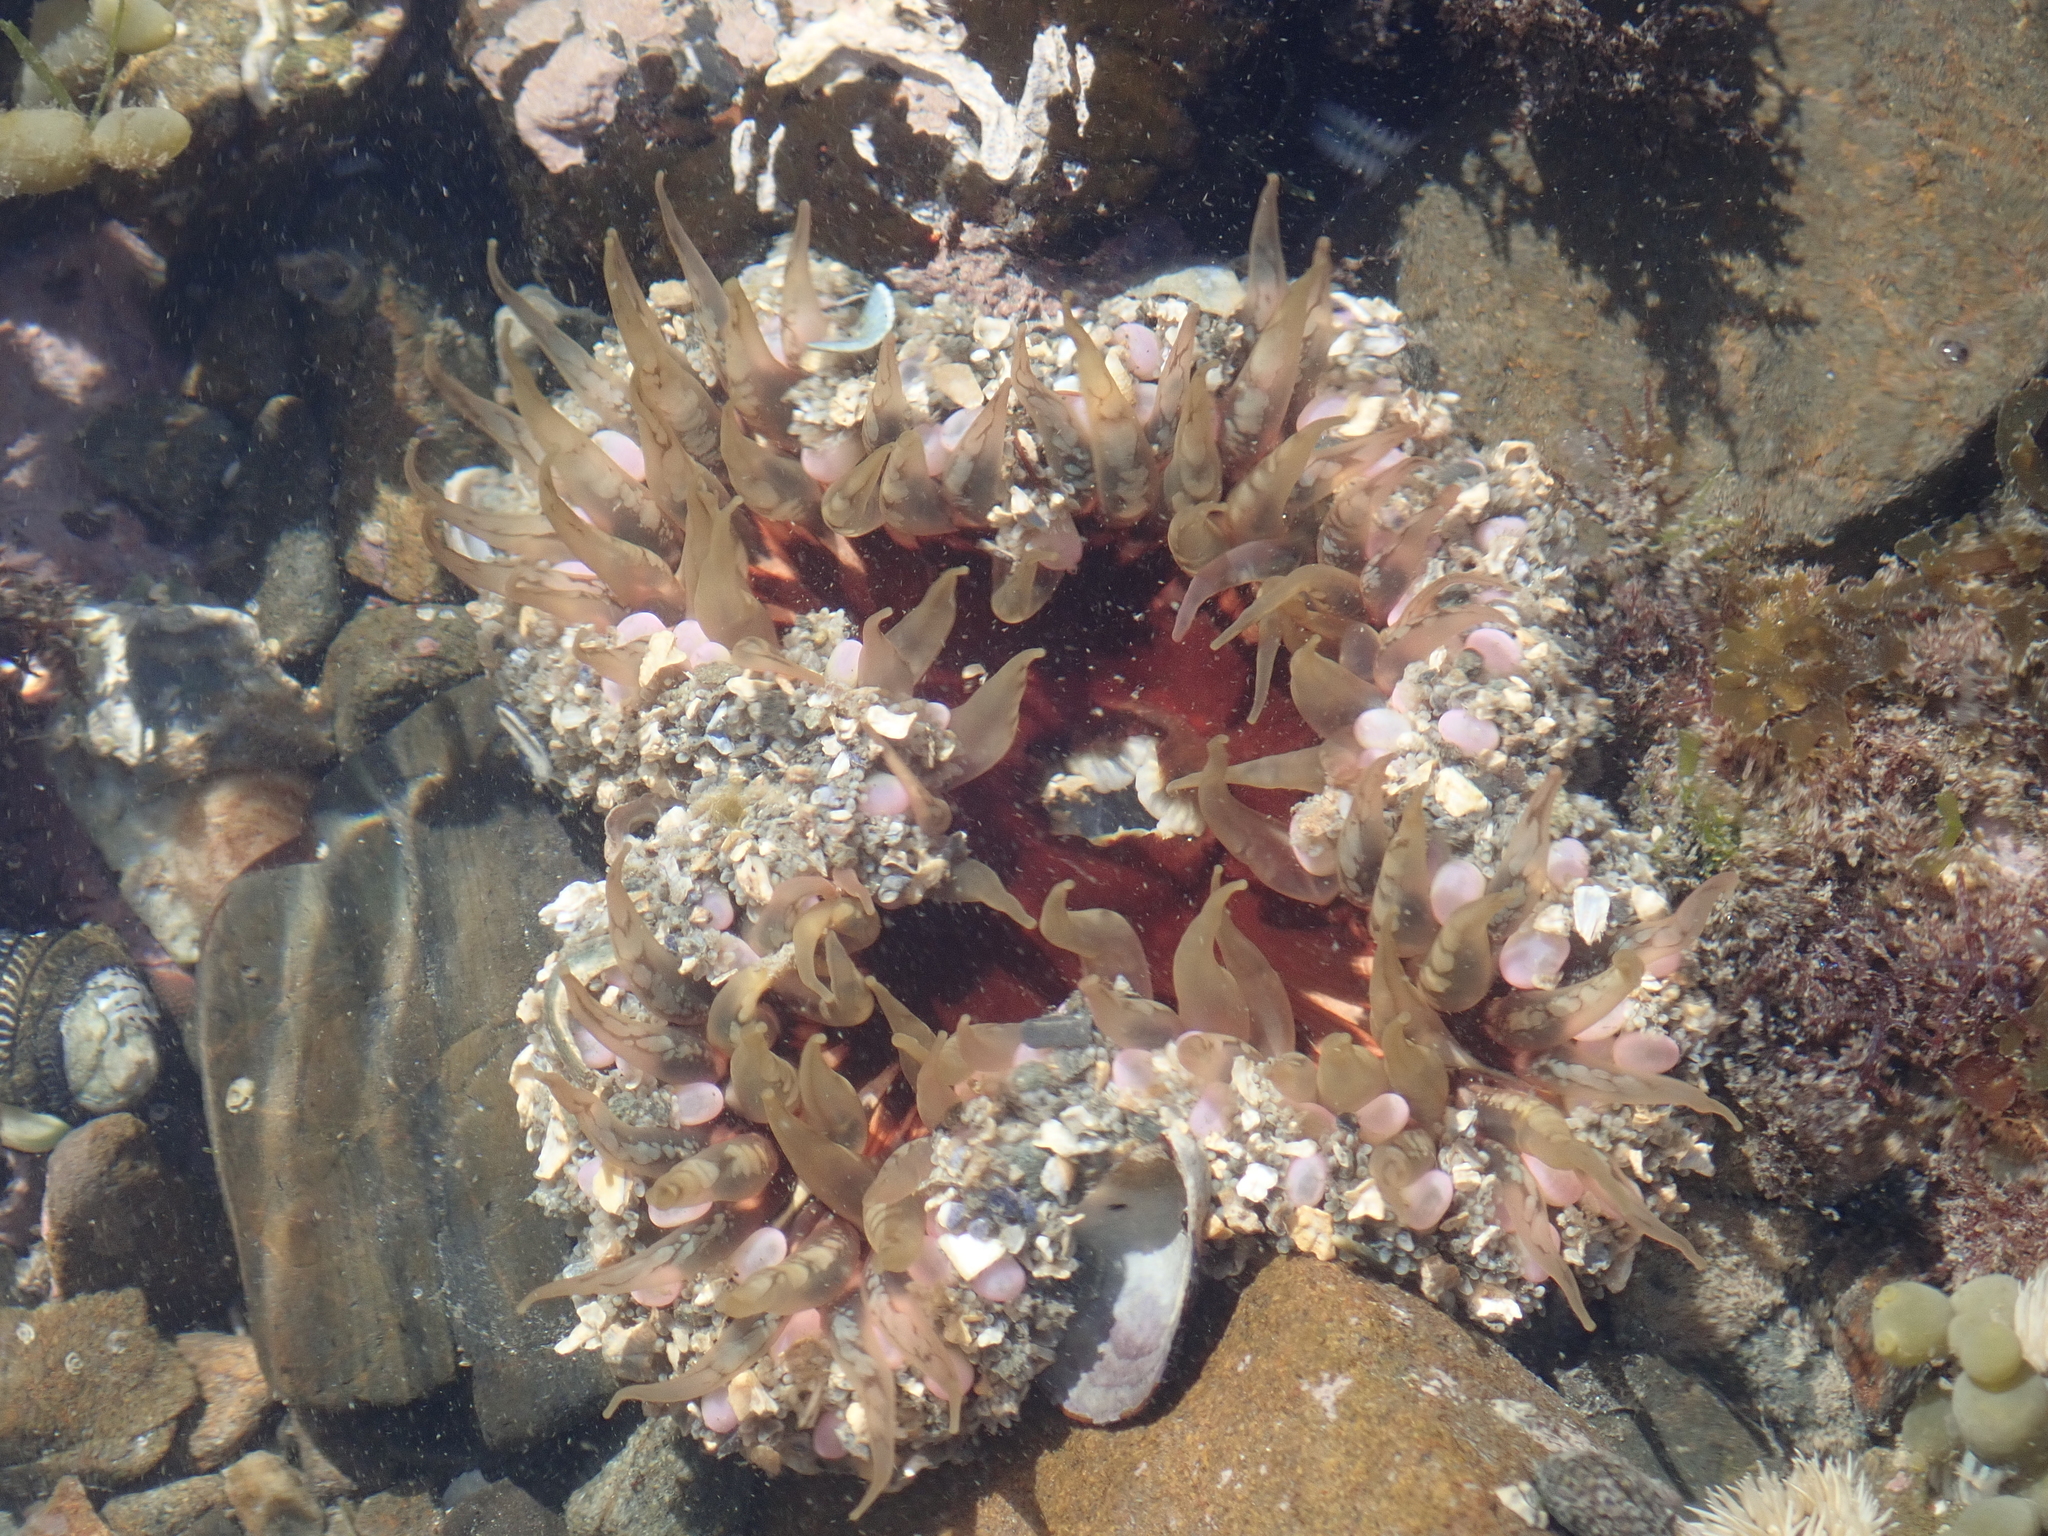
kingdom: Animalia
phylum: Cnidaria
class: Anthozoa
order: Actiniaria
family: Actiniidae
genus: Oulactis
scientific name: Oulactis muscosa
